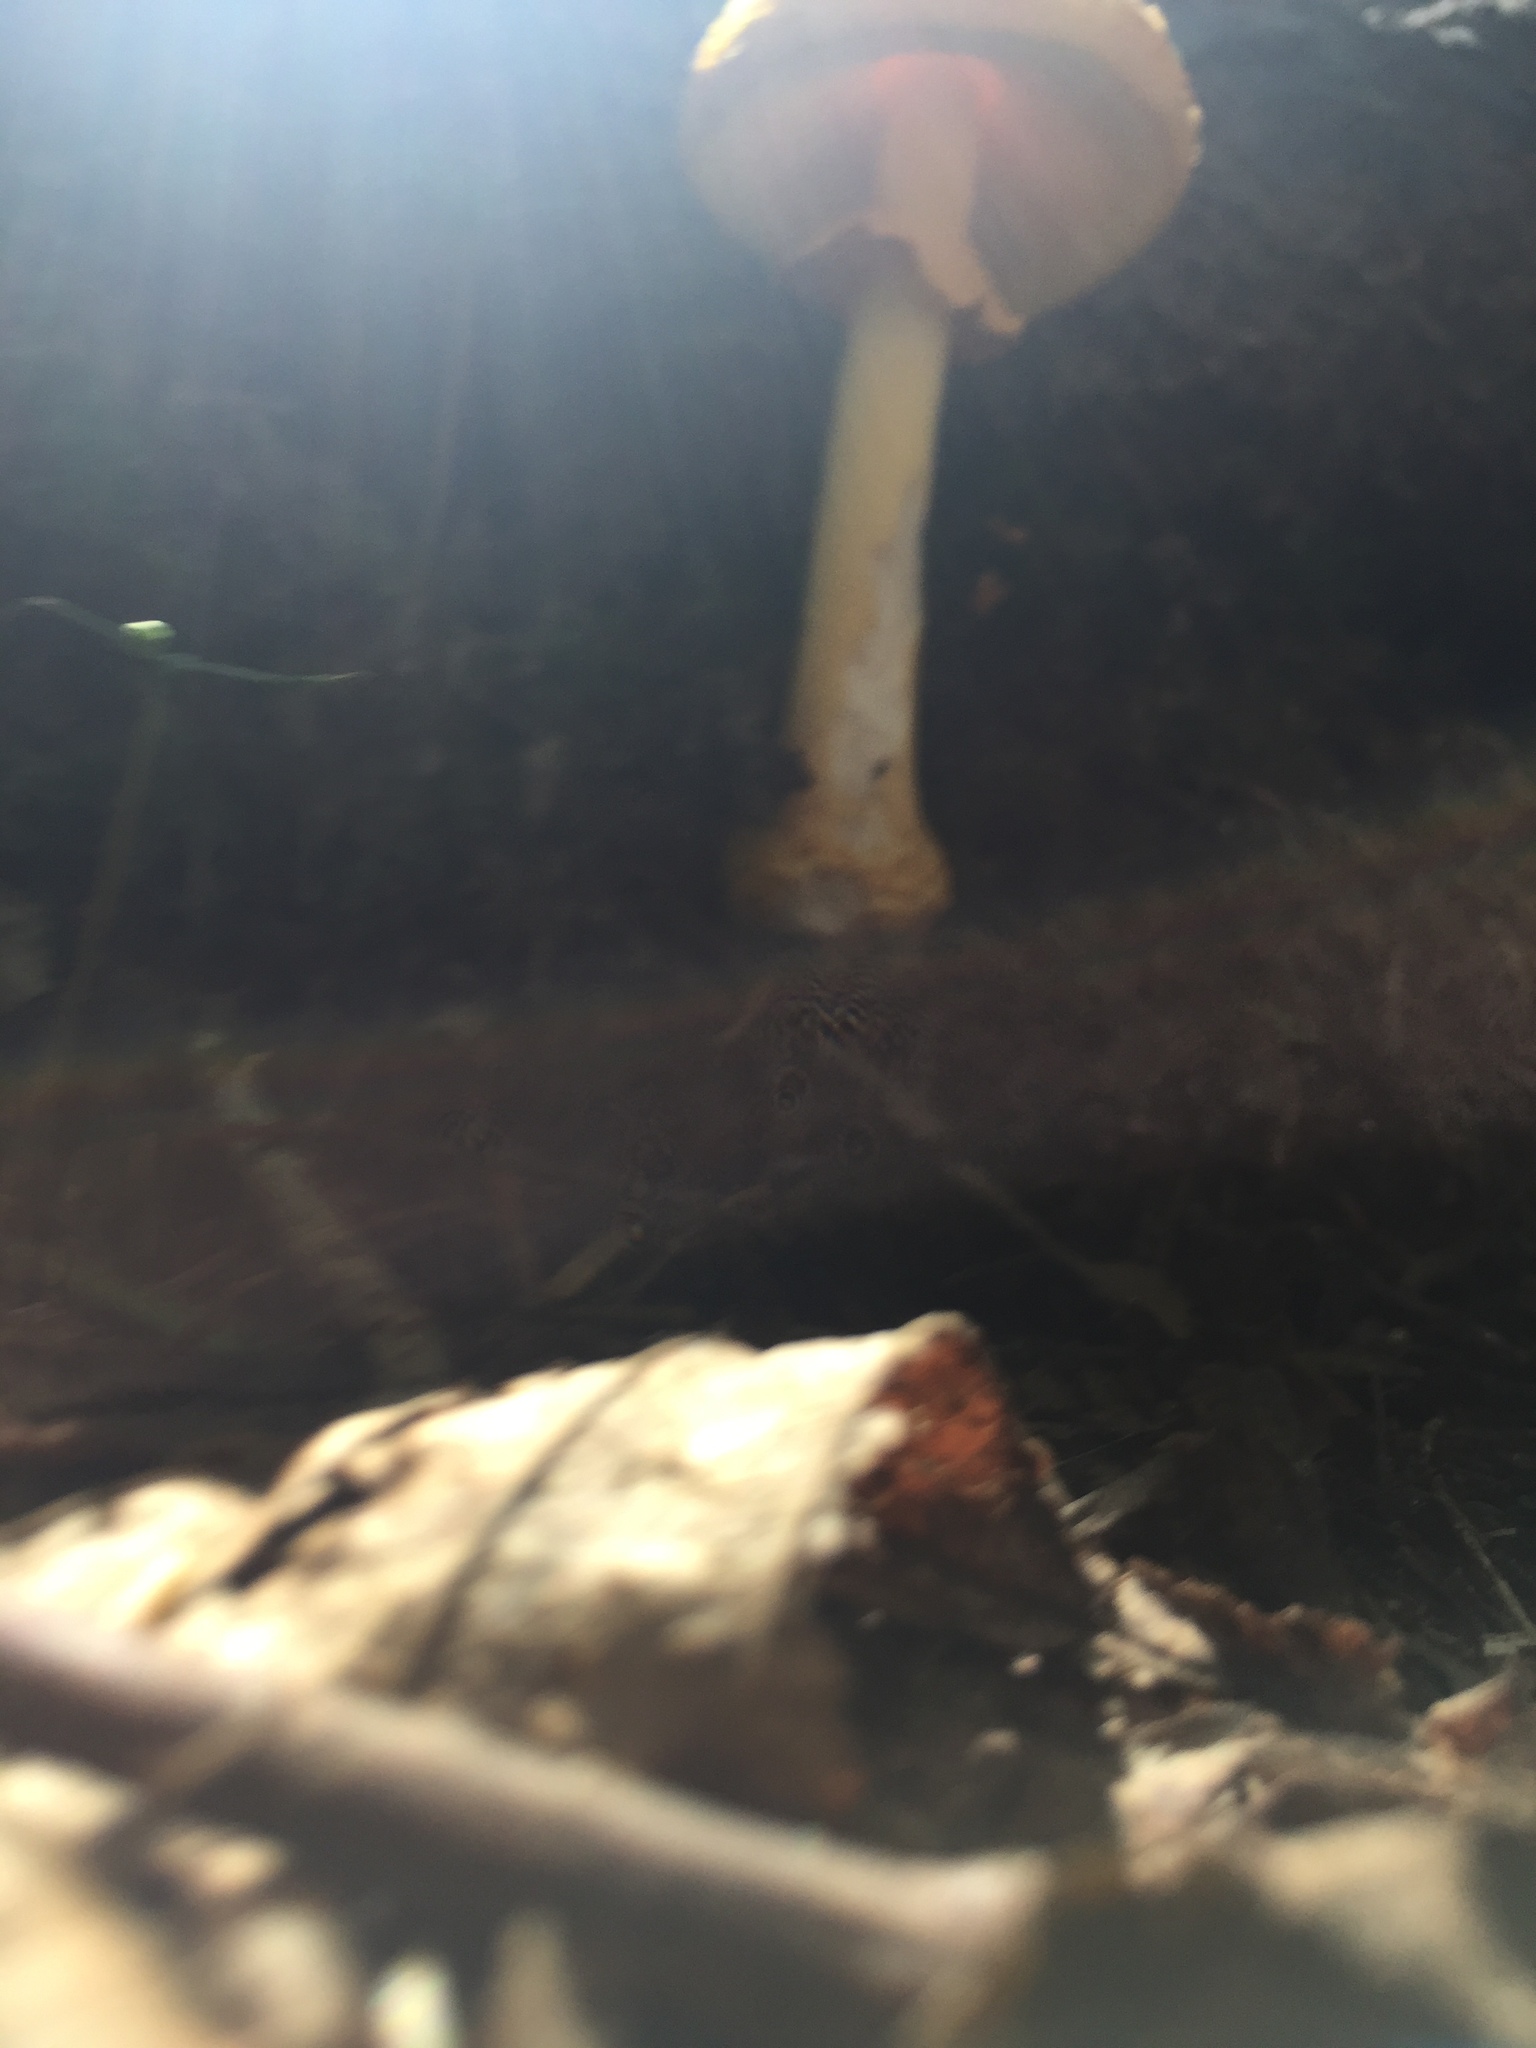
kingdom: Fungi
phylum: Basidiomycota
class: Agaricomycetes
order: Agaricales
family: Amanitaceae
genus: Amanita
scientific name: Amanita flavoconia
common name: Yellow patches
